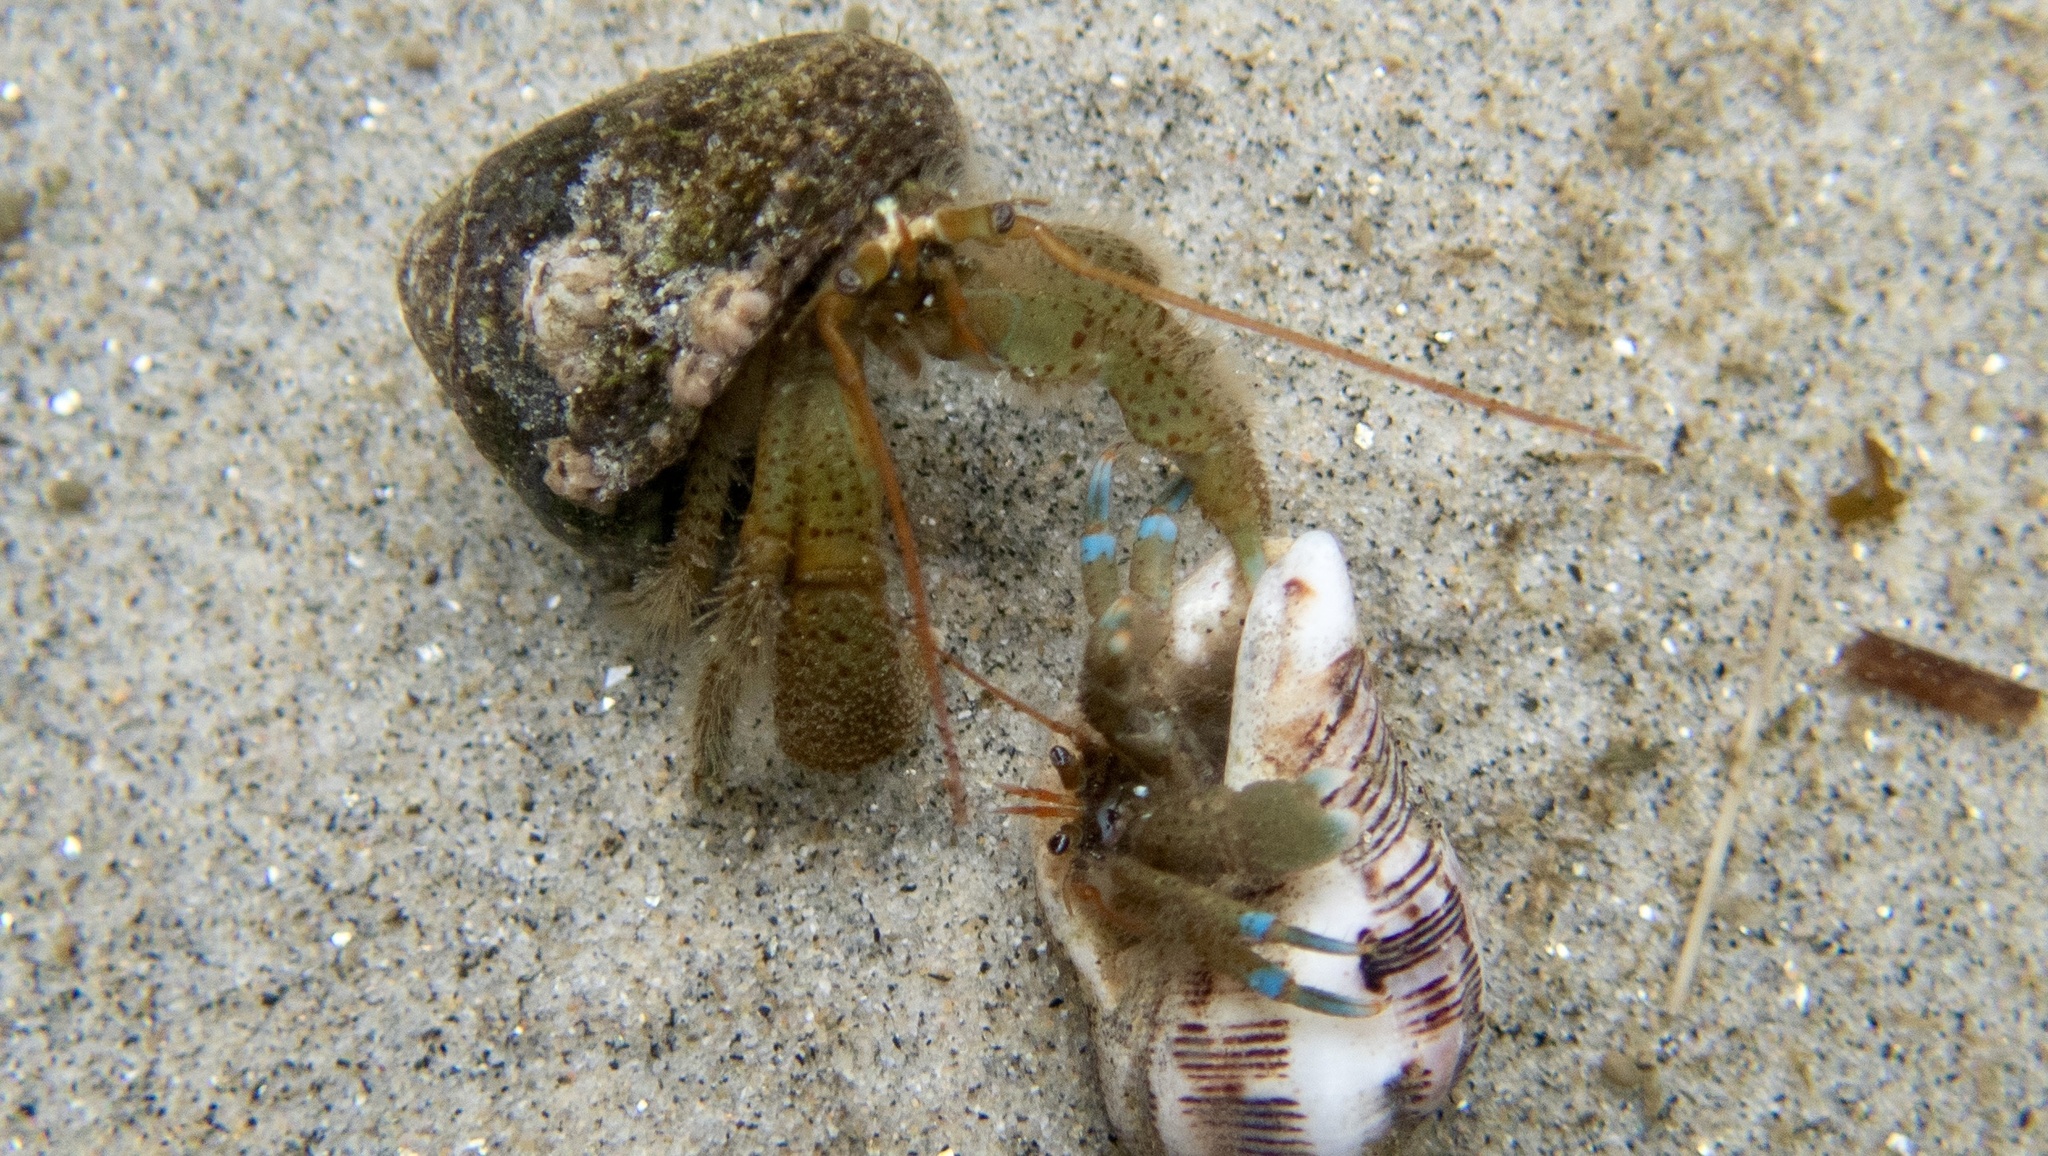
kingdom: Animalia
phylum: Arthropoda
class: Malacostraca
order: Decapoda
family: Paguridae
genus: Pagurus
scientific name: Pagurus samuelis
